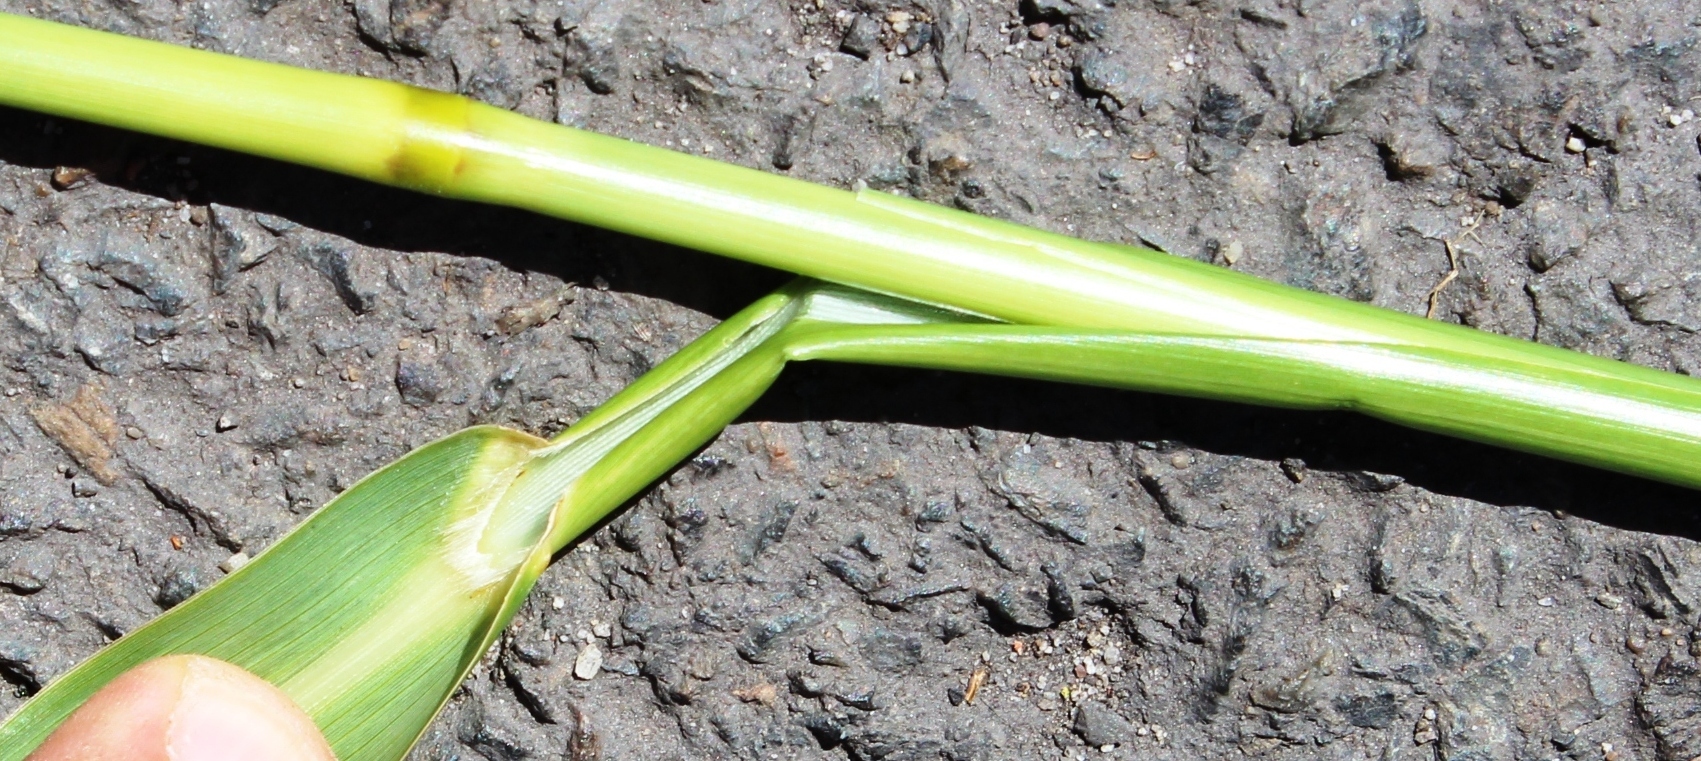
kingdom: Plantae
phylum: Tracheophyta
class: Liliopsida
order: Poales
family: Poaceae
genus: Echinochloa
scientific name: Echinochloa pyramidalis
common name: Antelope grass
